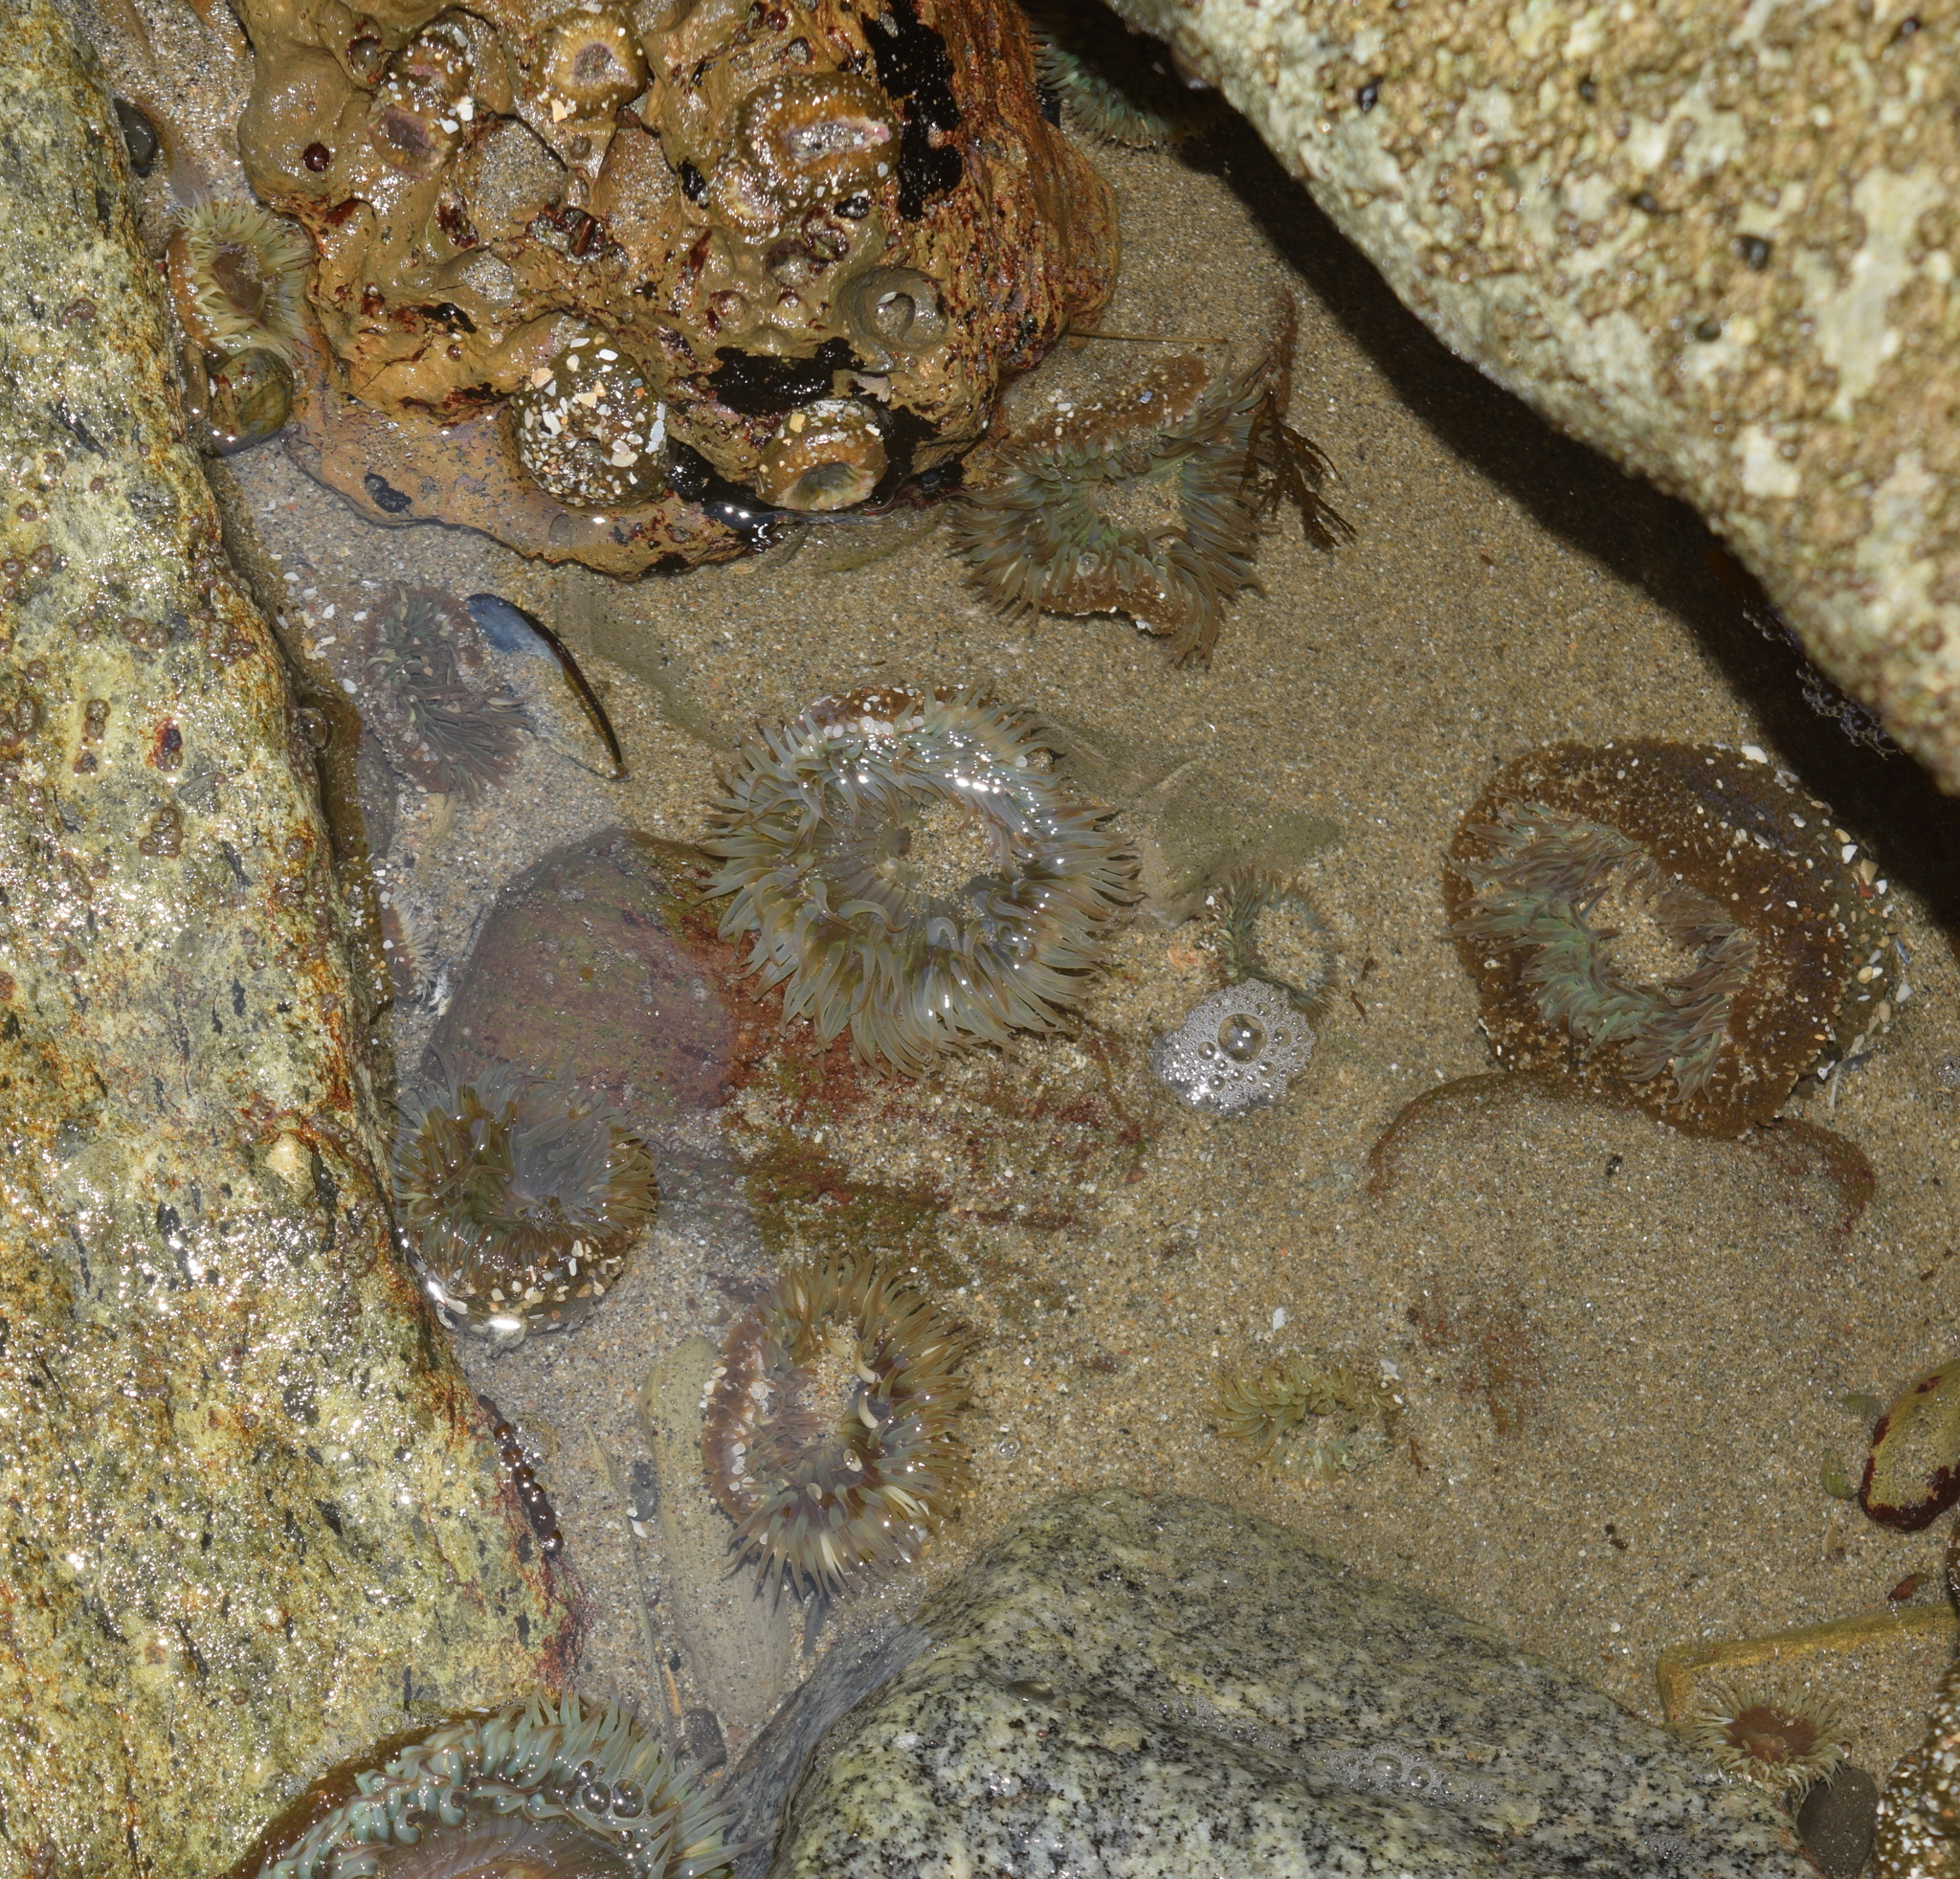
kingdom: Animalia
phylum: Cnidaria
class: Anthozoa
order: Actiniaria
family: Actiniidae
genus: Anthopleura
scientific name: Anthopleura sola
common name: Sun anemone
